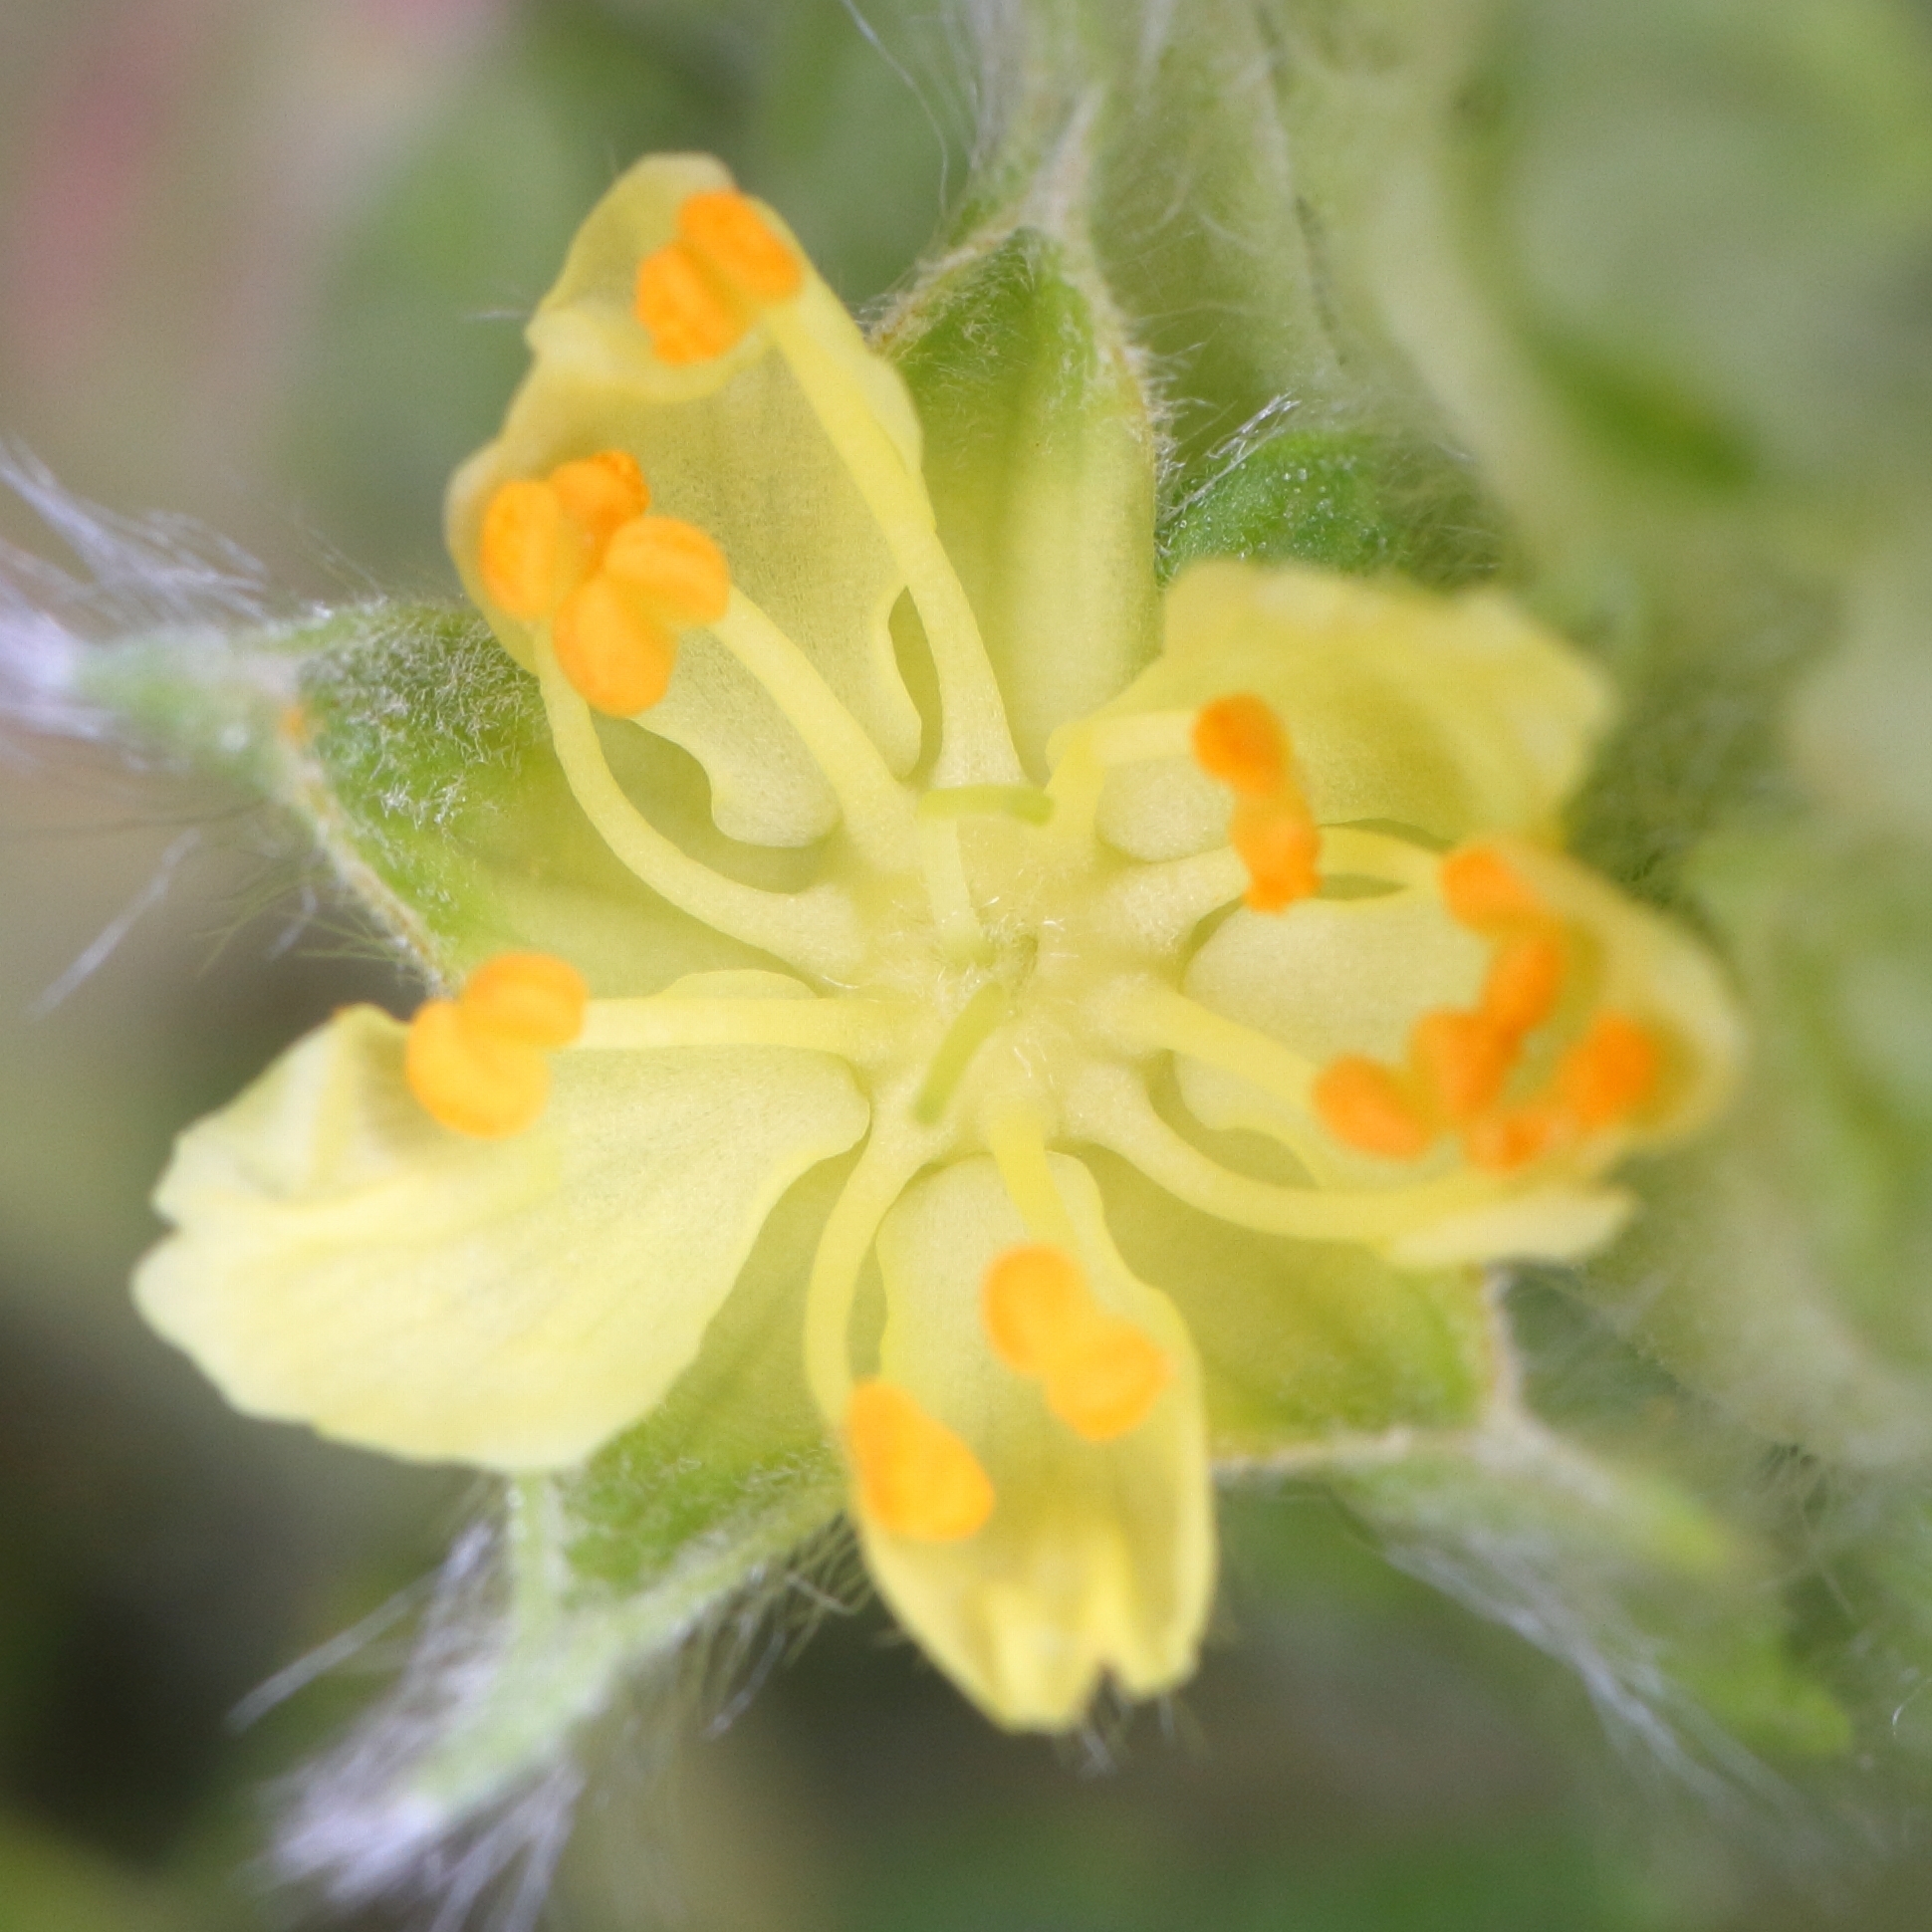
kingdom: Plantae
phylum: Tracheophyta
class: Magnoliopsida
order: Rosales
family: Rosaceae
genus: Leucosidea
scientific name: Leucosidea sericea
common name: Oldwood
